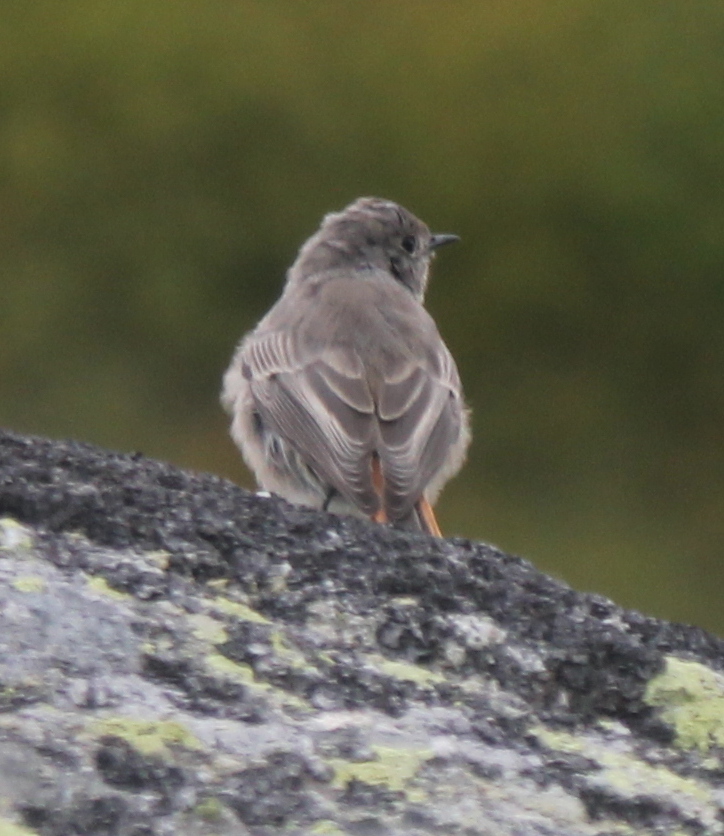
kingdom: Animalia
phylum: Chordata
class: Aves
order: Passeriformes
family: Muscicapidae
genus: Phoenicurus
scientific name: Phoenicurus ochruros
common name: Black redstart
